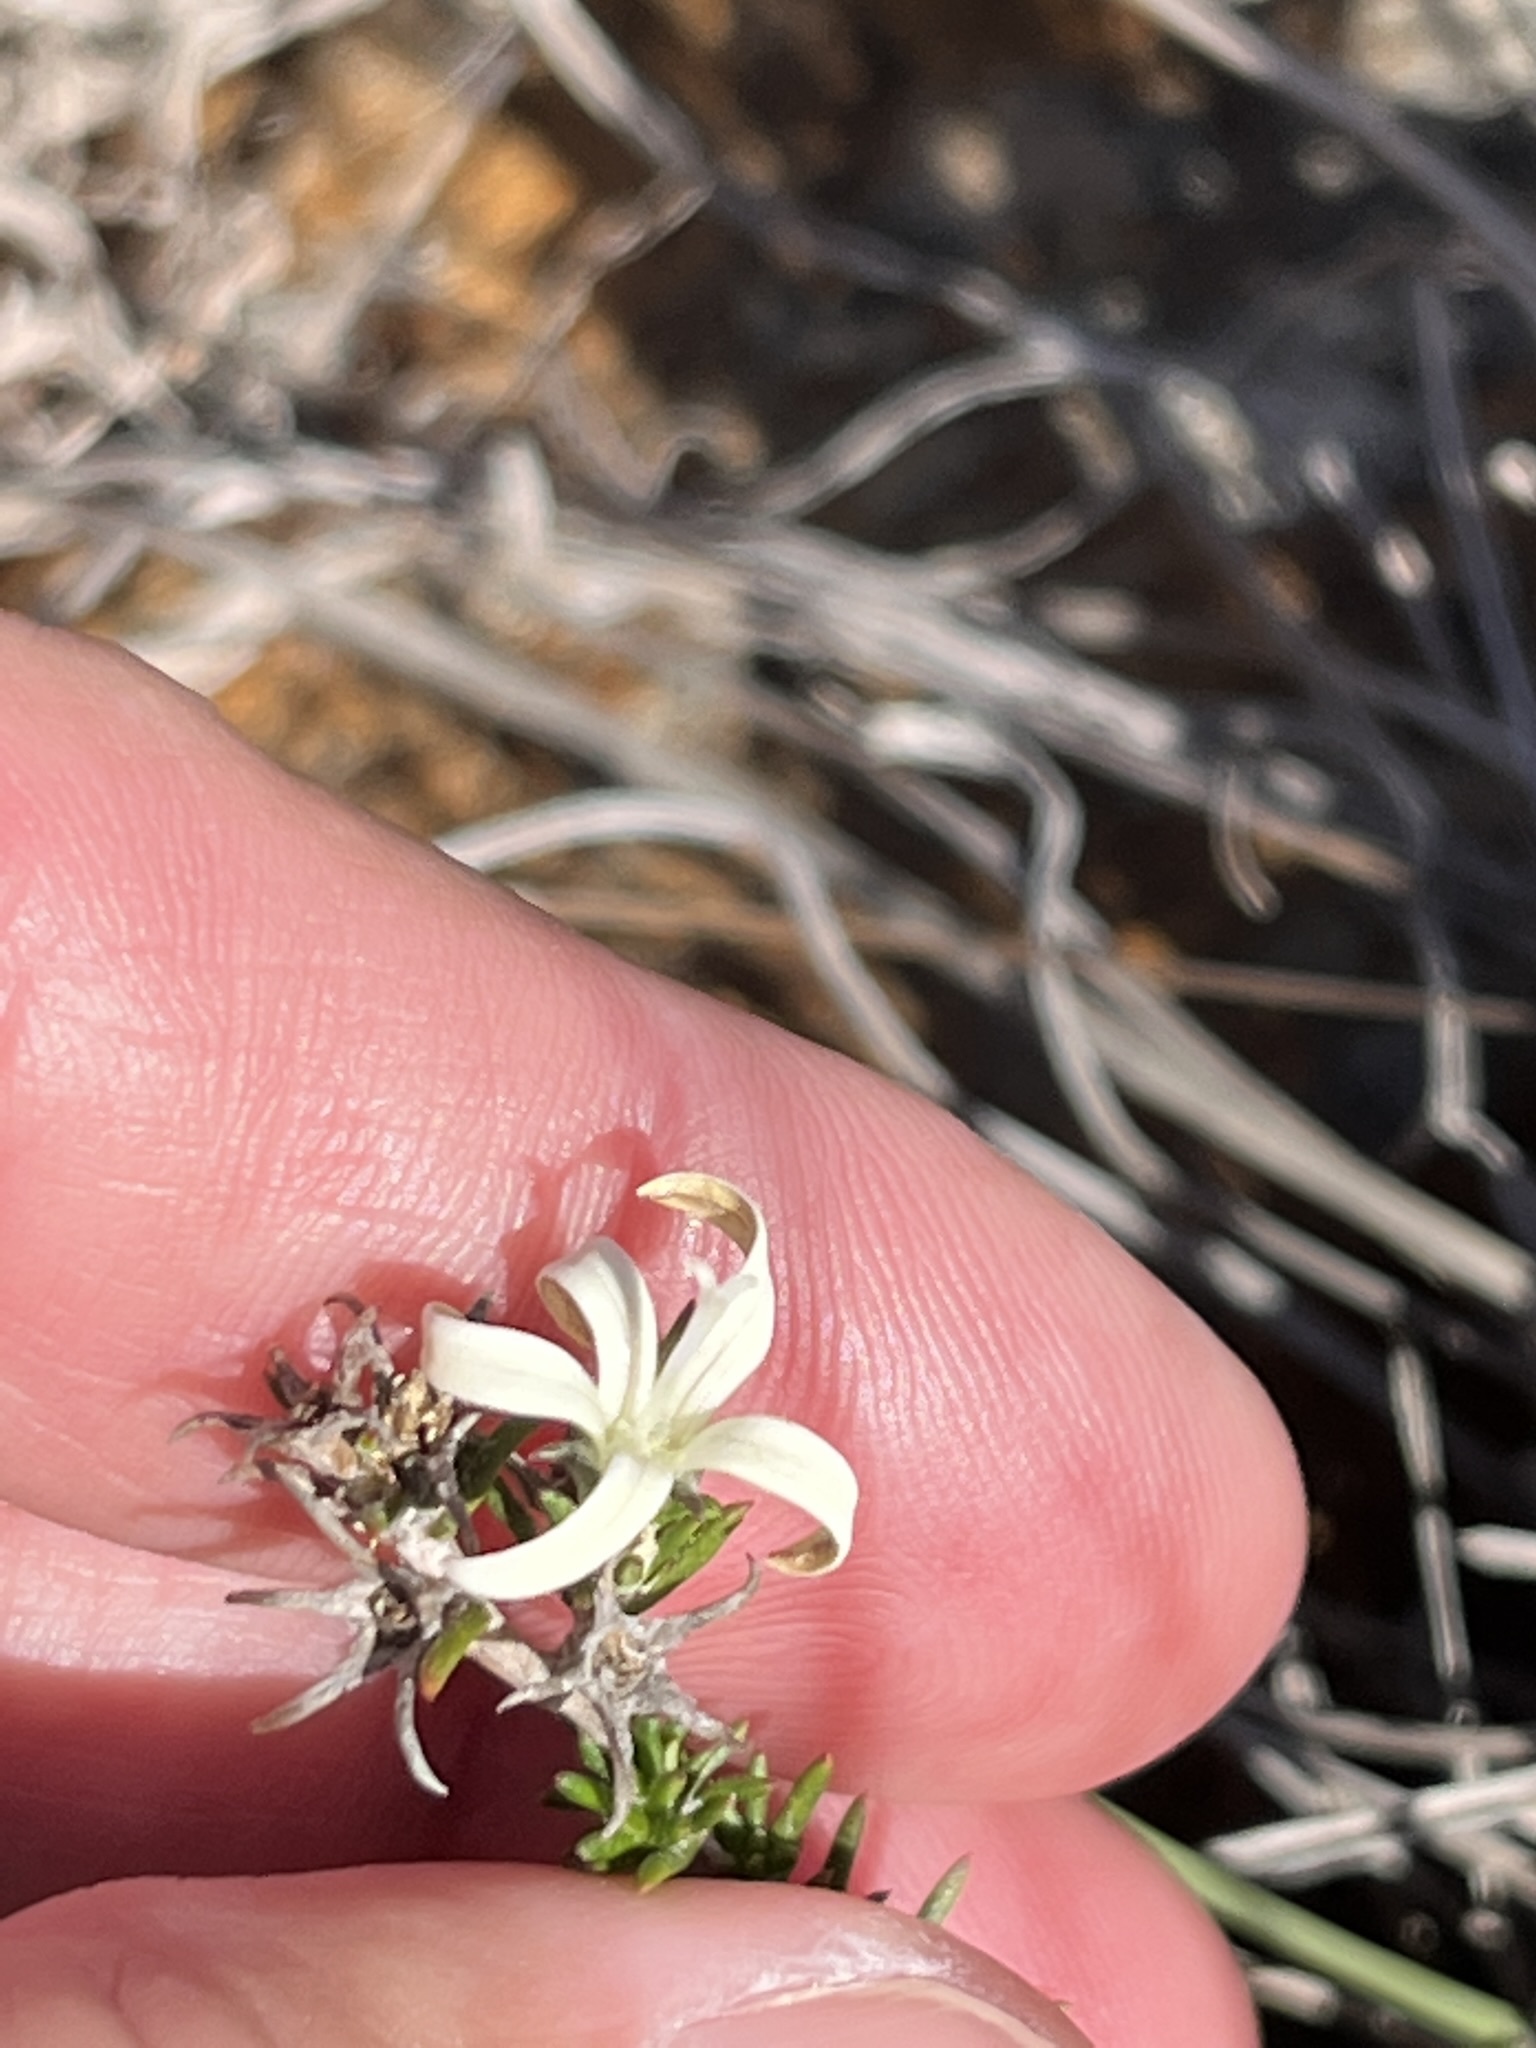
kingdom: Plantae
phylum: Tracheophyta
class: Magnoliopsida
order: Asterales
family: Campanulaceae
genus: Wahlenbergia
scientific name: Wahlenbergia cinerea
